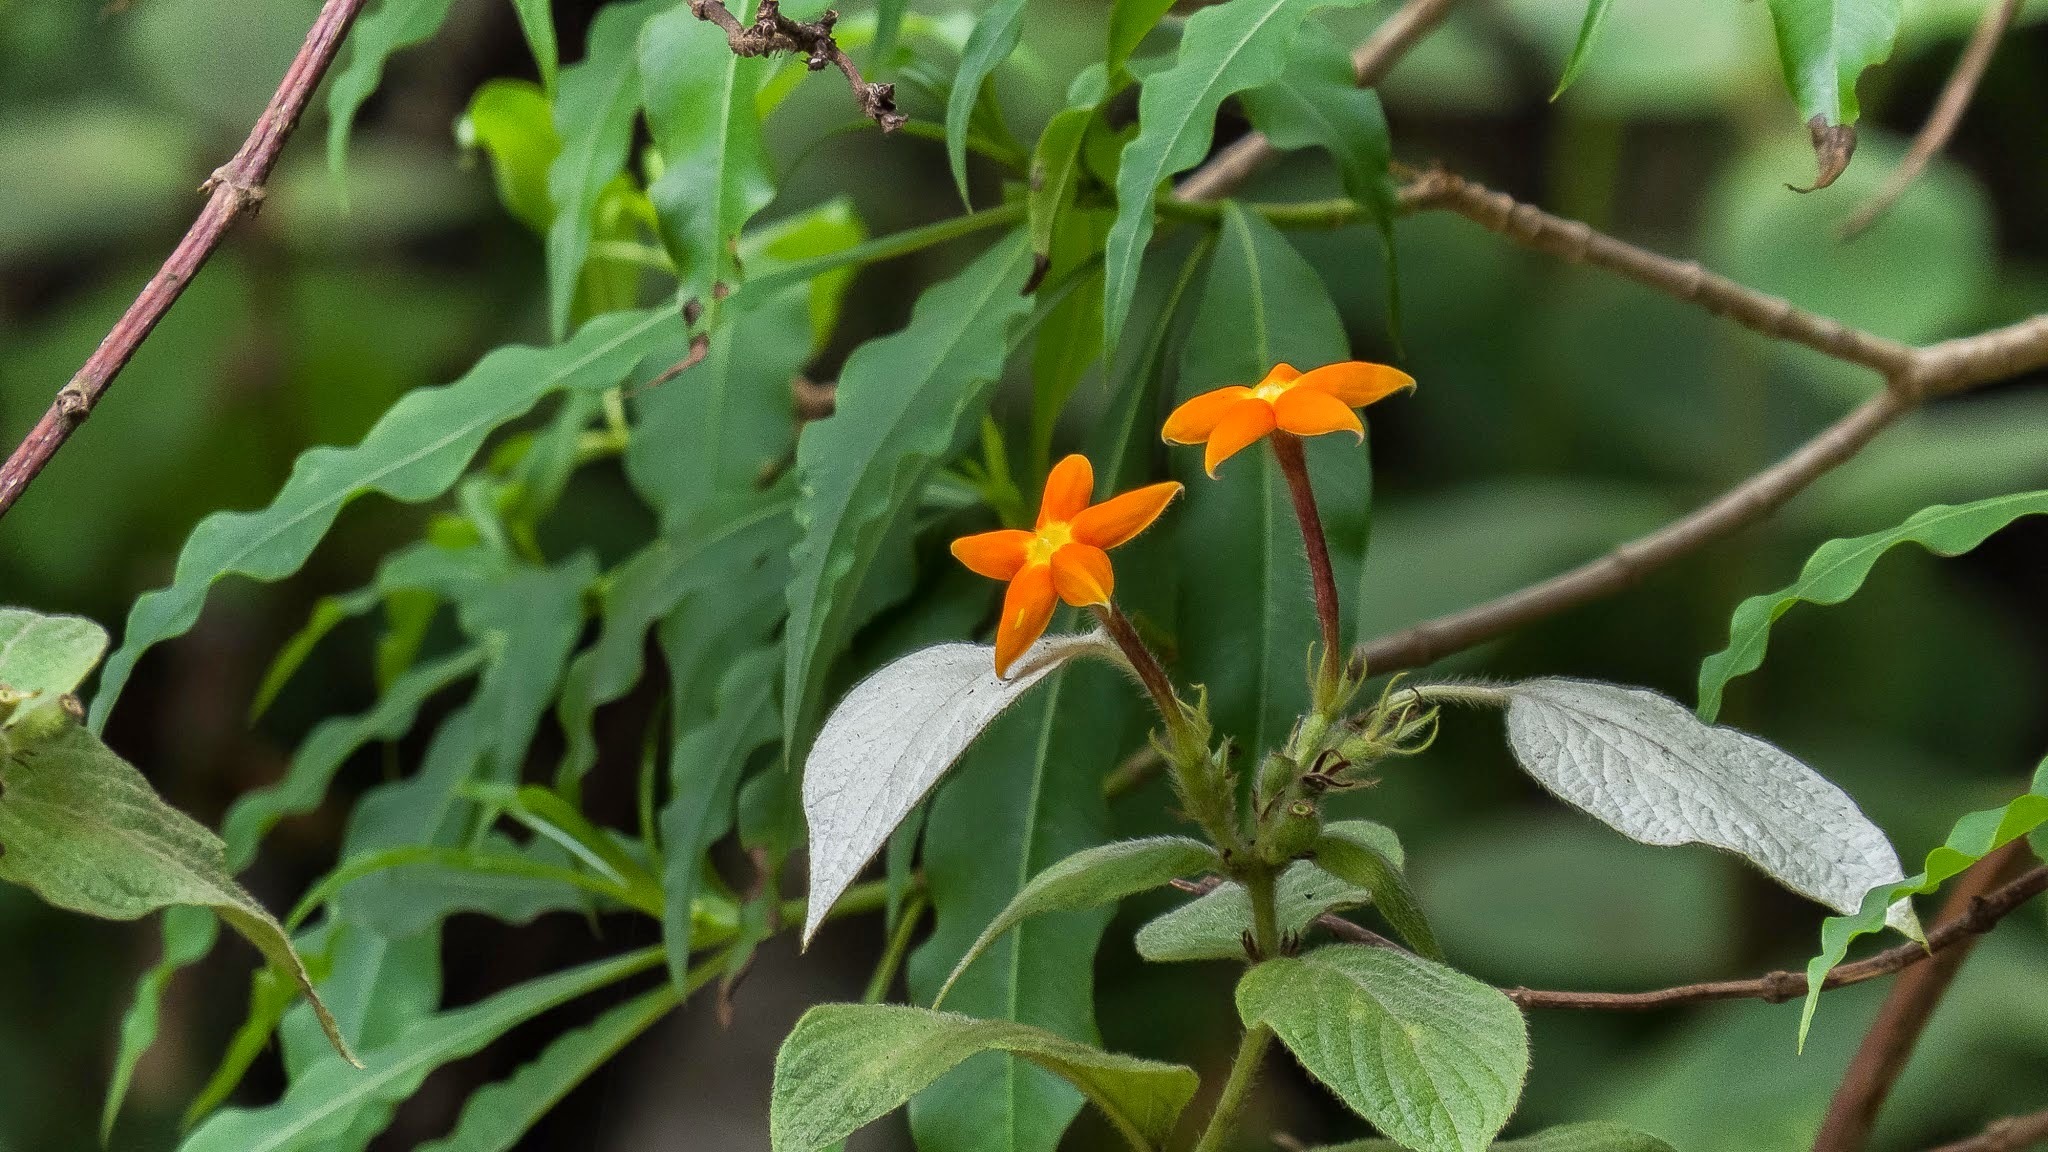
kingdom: Plantae
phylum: Tracheophyta
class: Magnoliopsida
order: Gentianales
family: Rubiaceae
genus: Mussaenda
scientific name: Mussaenda
